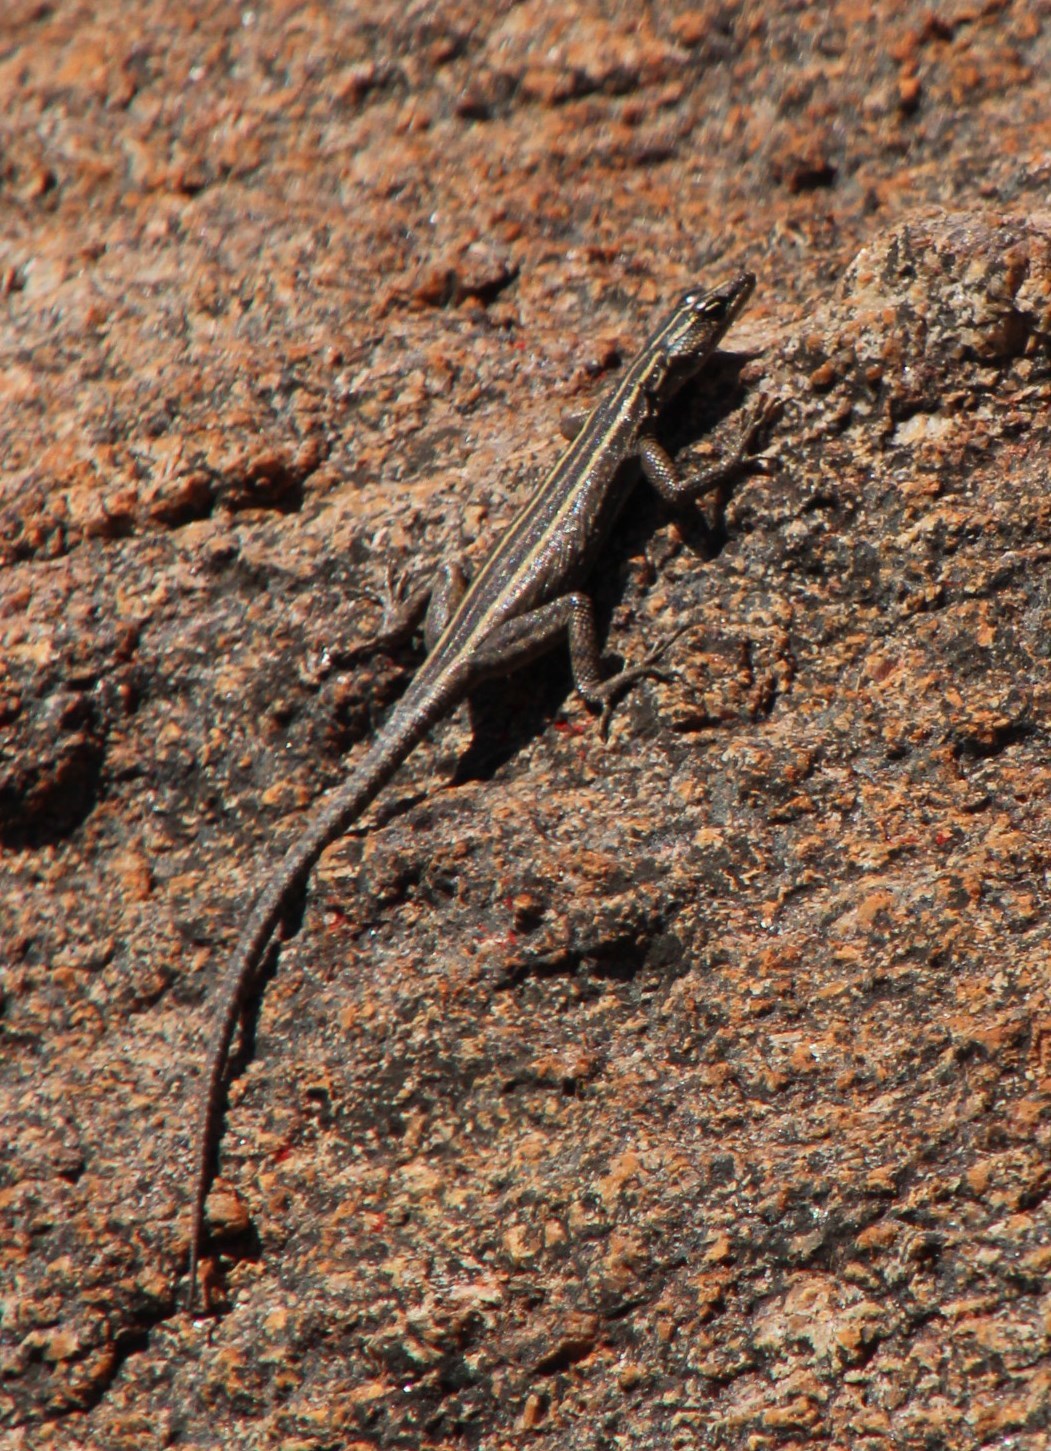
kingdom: Animalia
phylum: Chordata
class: Squamata
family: Cordylidae
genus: Platysaurus
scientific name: Platysaurus capensis
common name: Namaqua flat lizard
